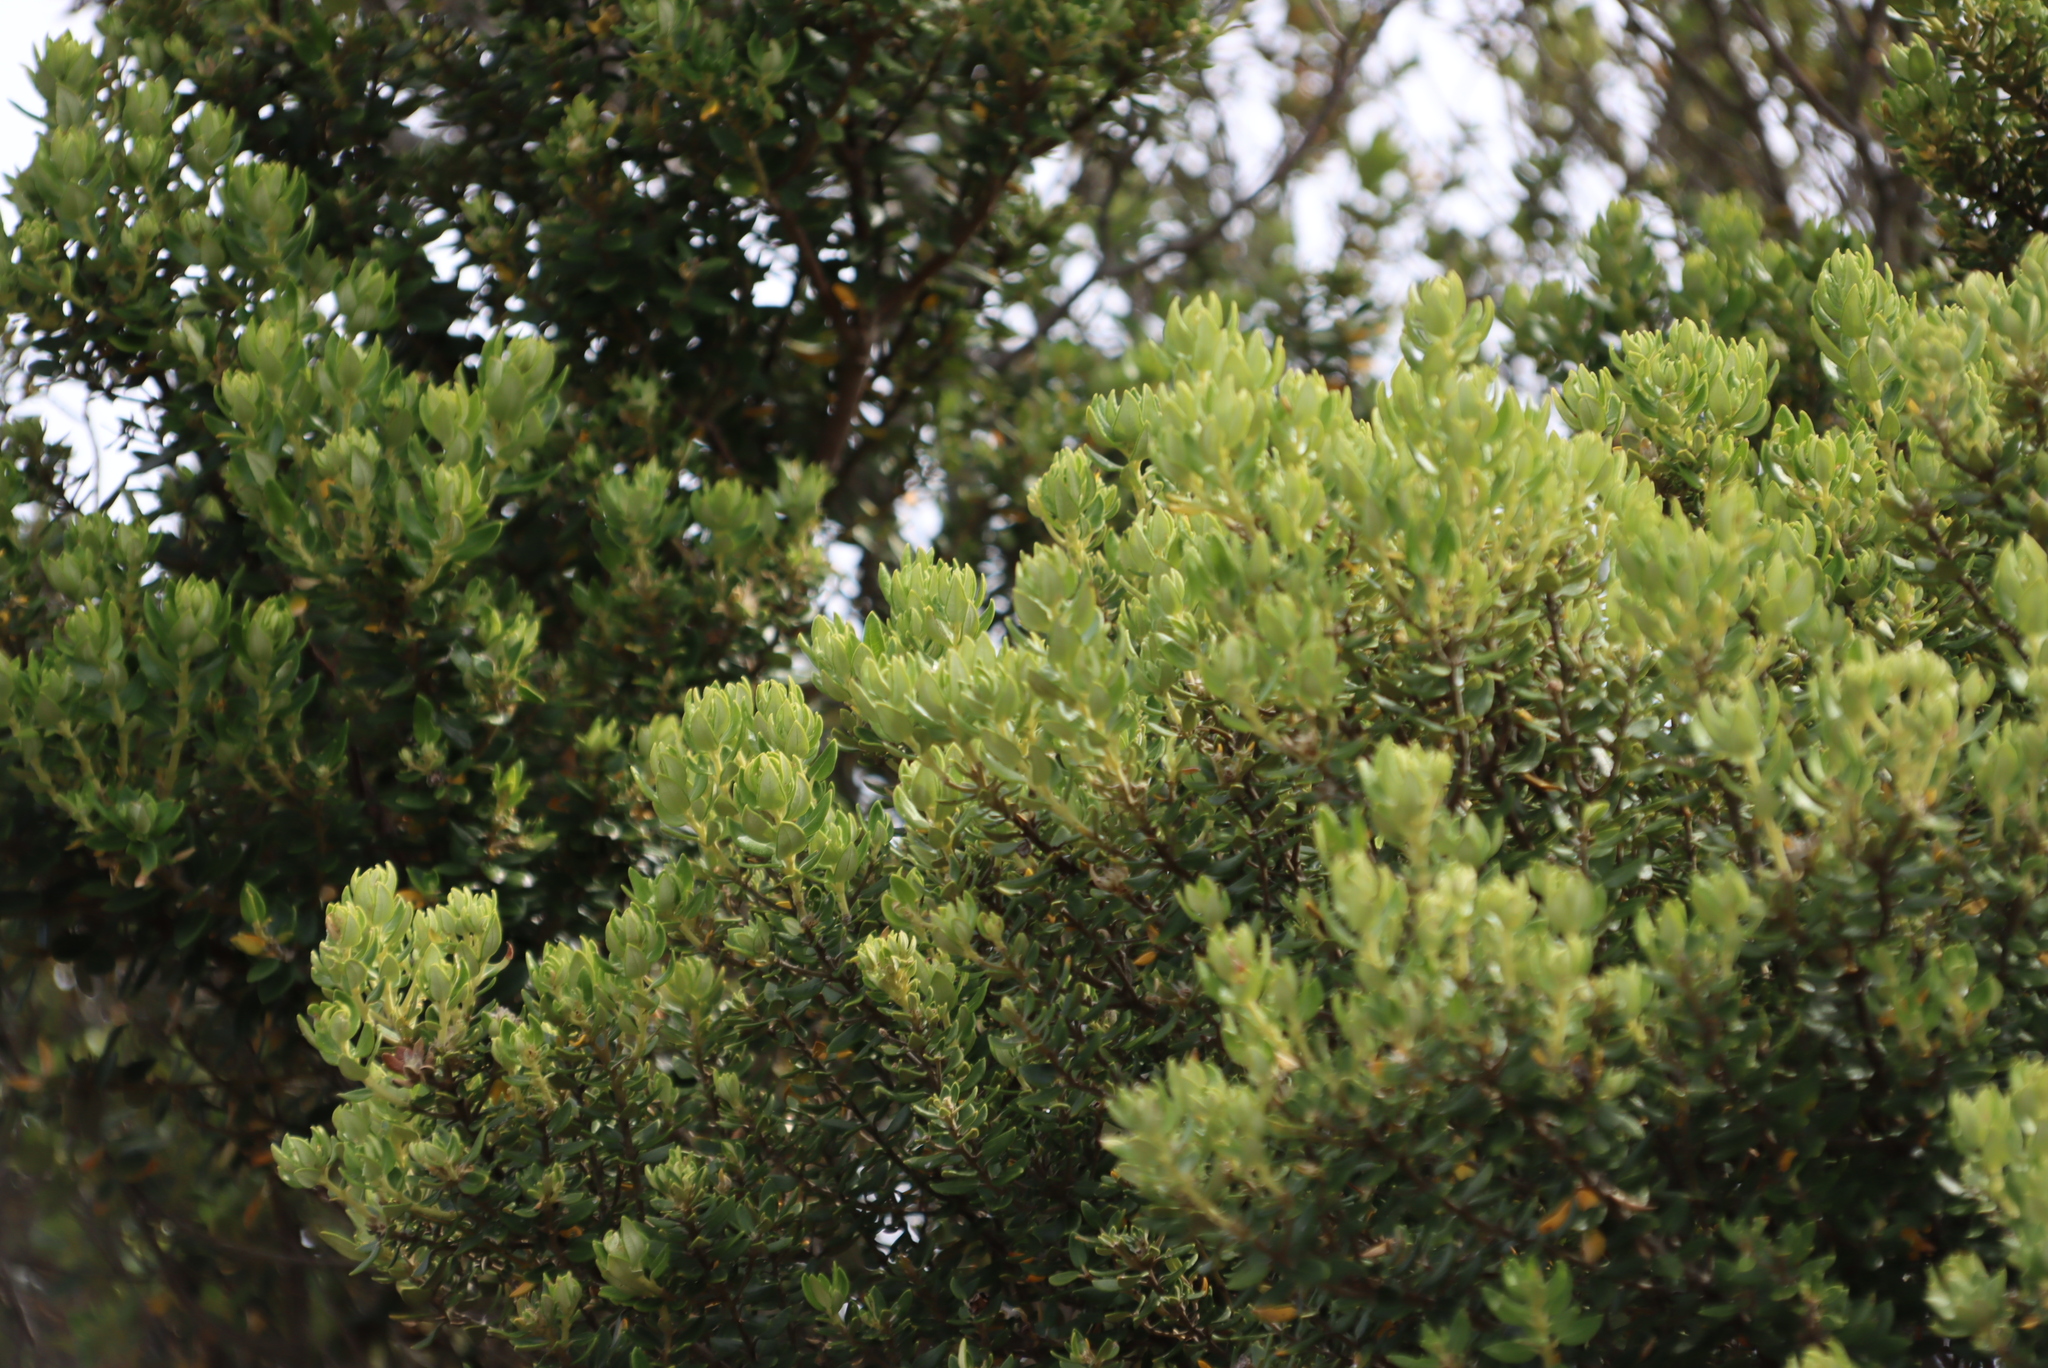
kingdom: Plantae
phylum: Tracheophyta
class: Magnoliopsida
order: Rosales
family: Rhamnaceae
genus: Phylica
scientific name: Phylica buxifolia
